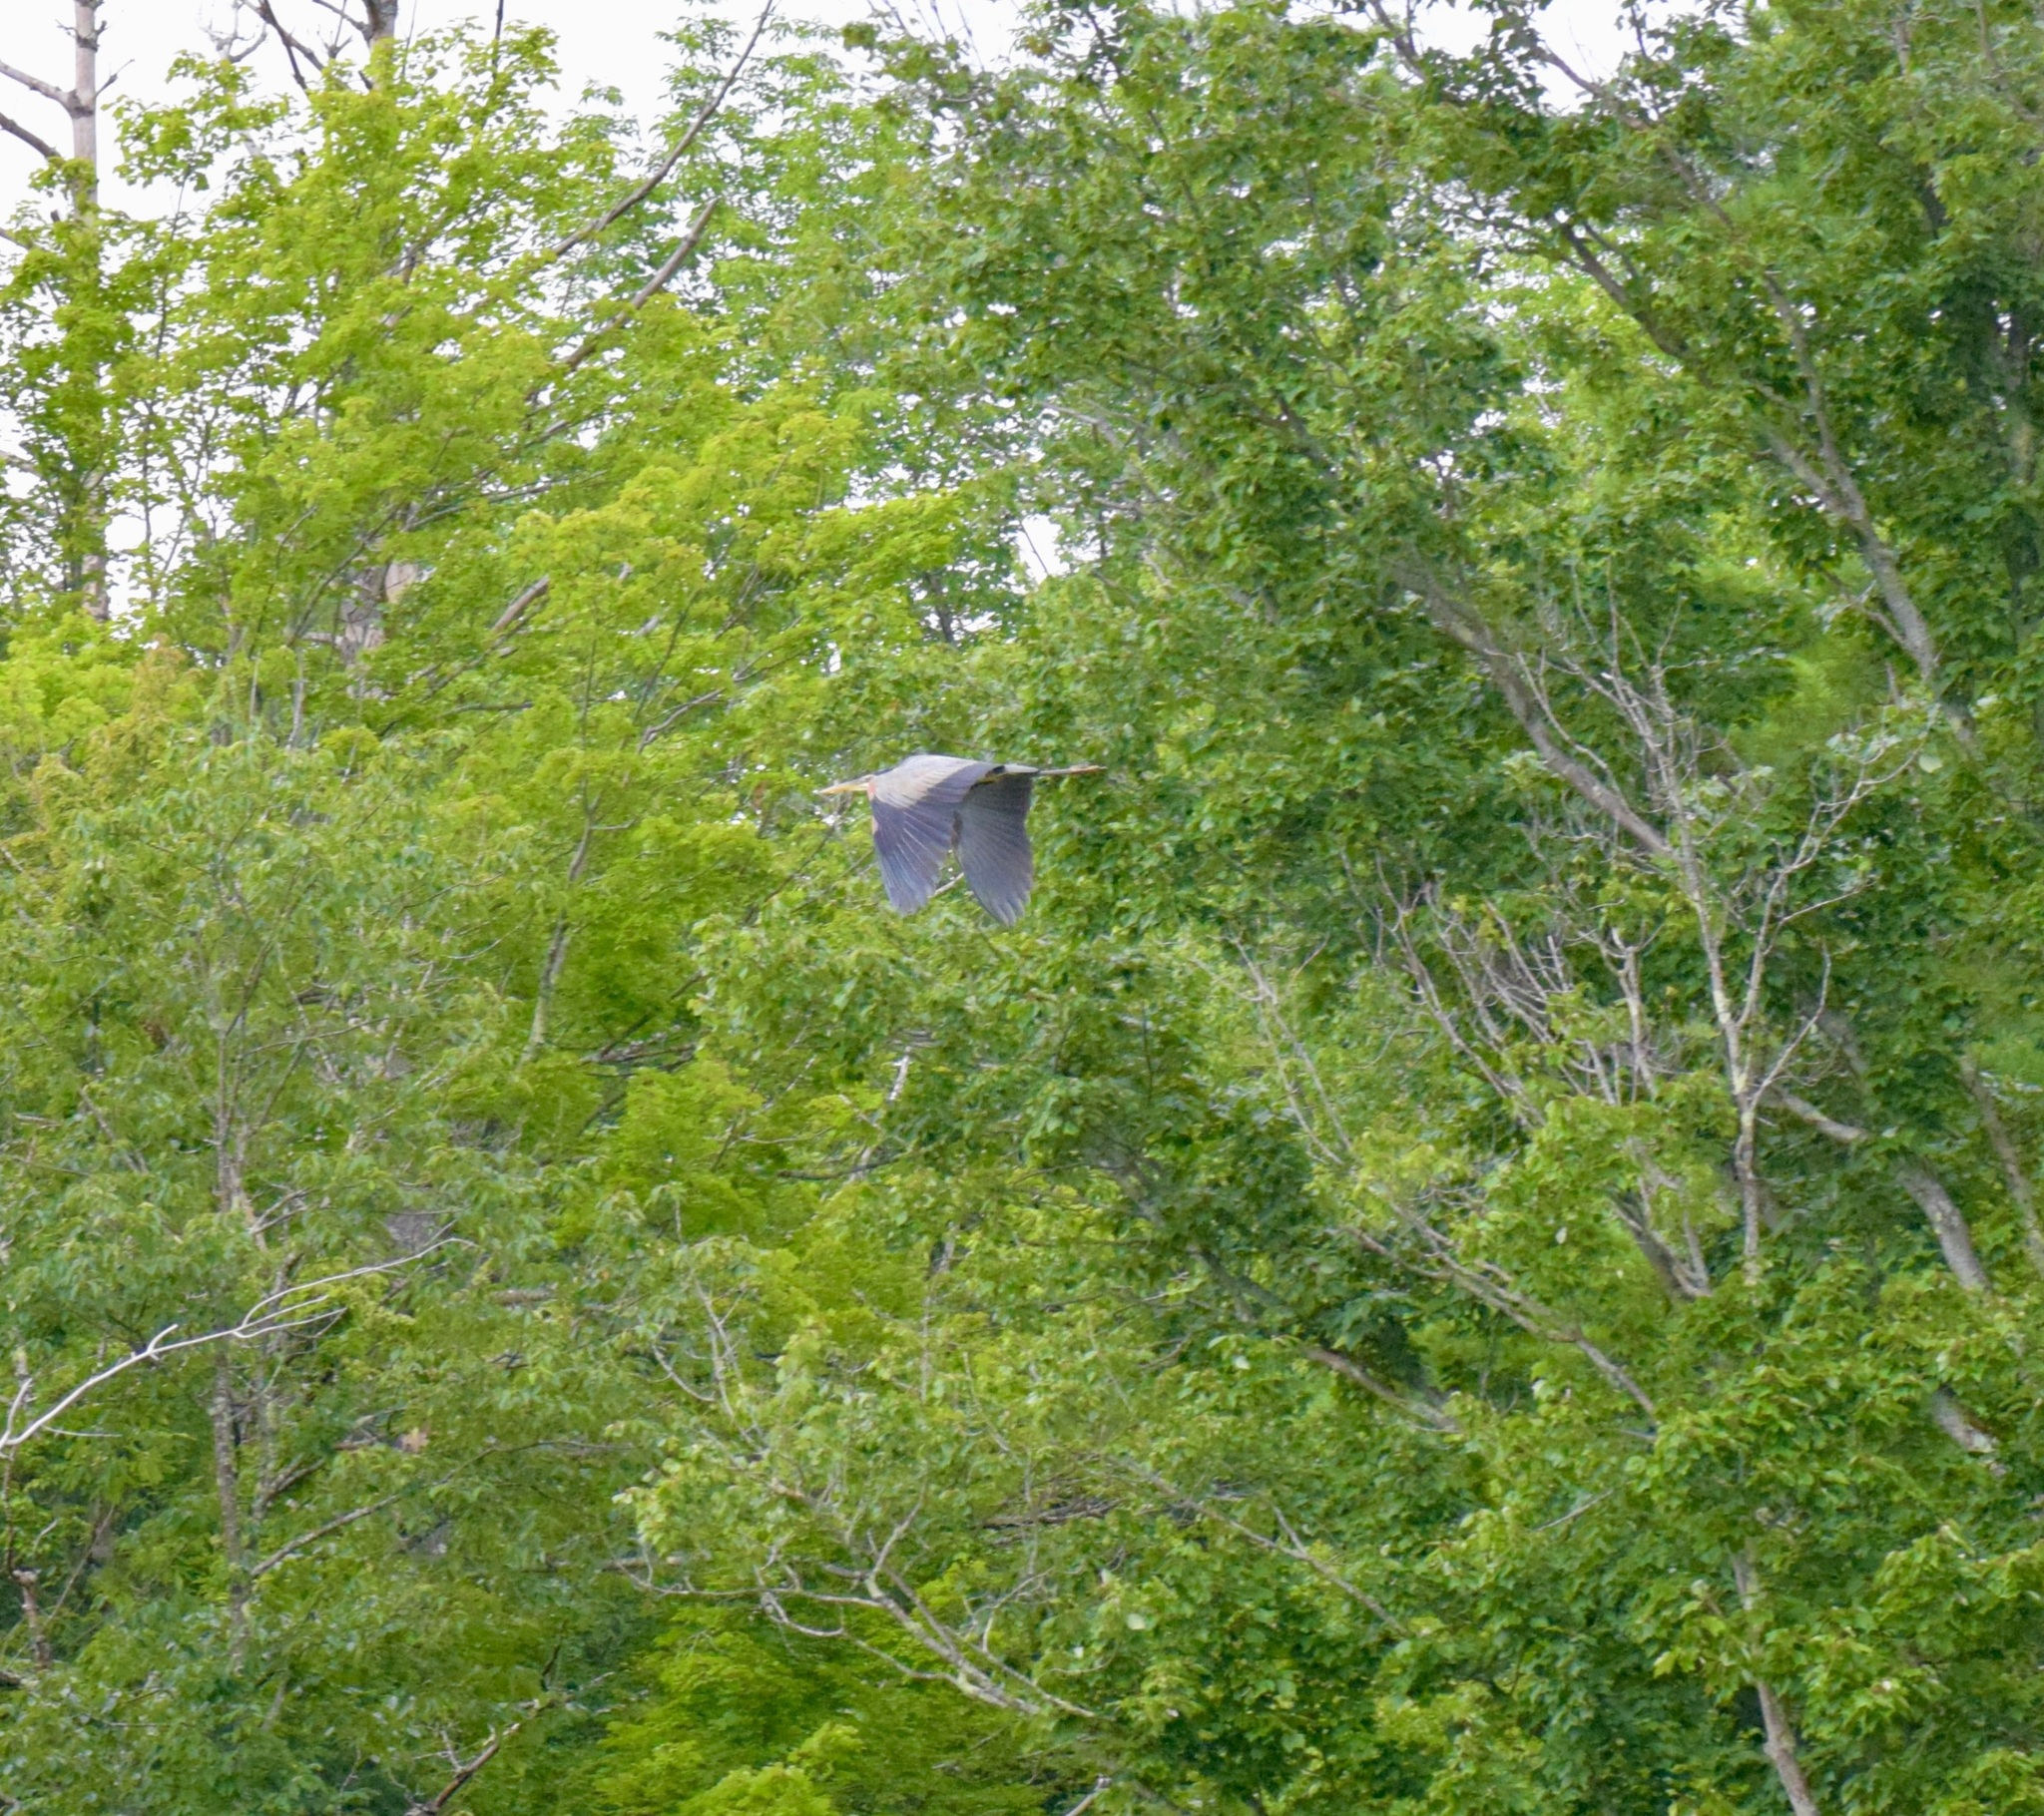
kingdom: Animalia
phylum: Chordata
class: Aves
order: Pelecaniformes
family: Ardeidae
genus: Ardea
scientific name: Ardea herodias
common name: Great blue heron
